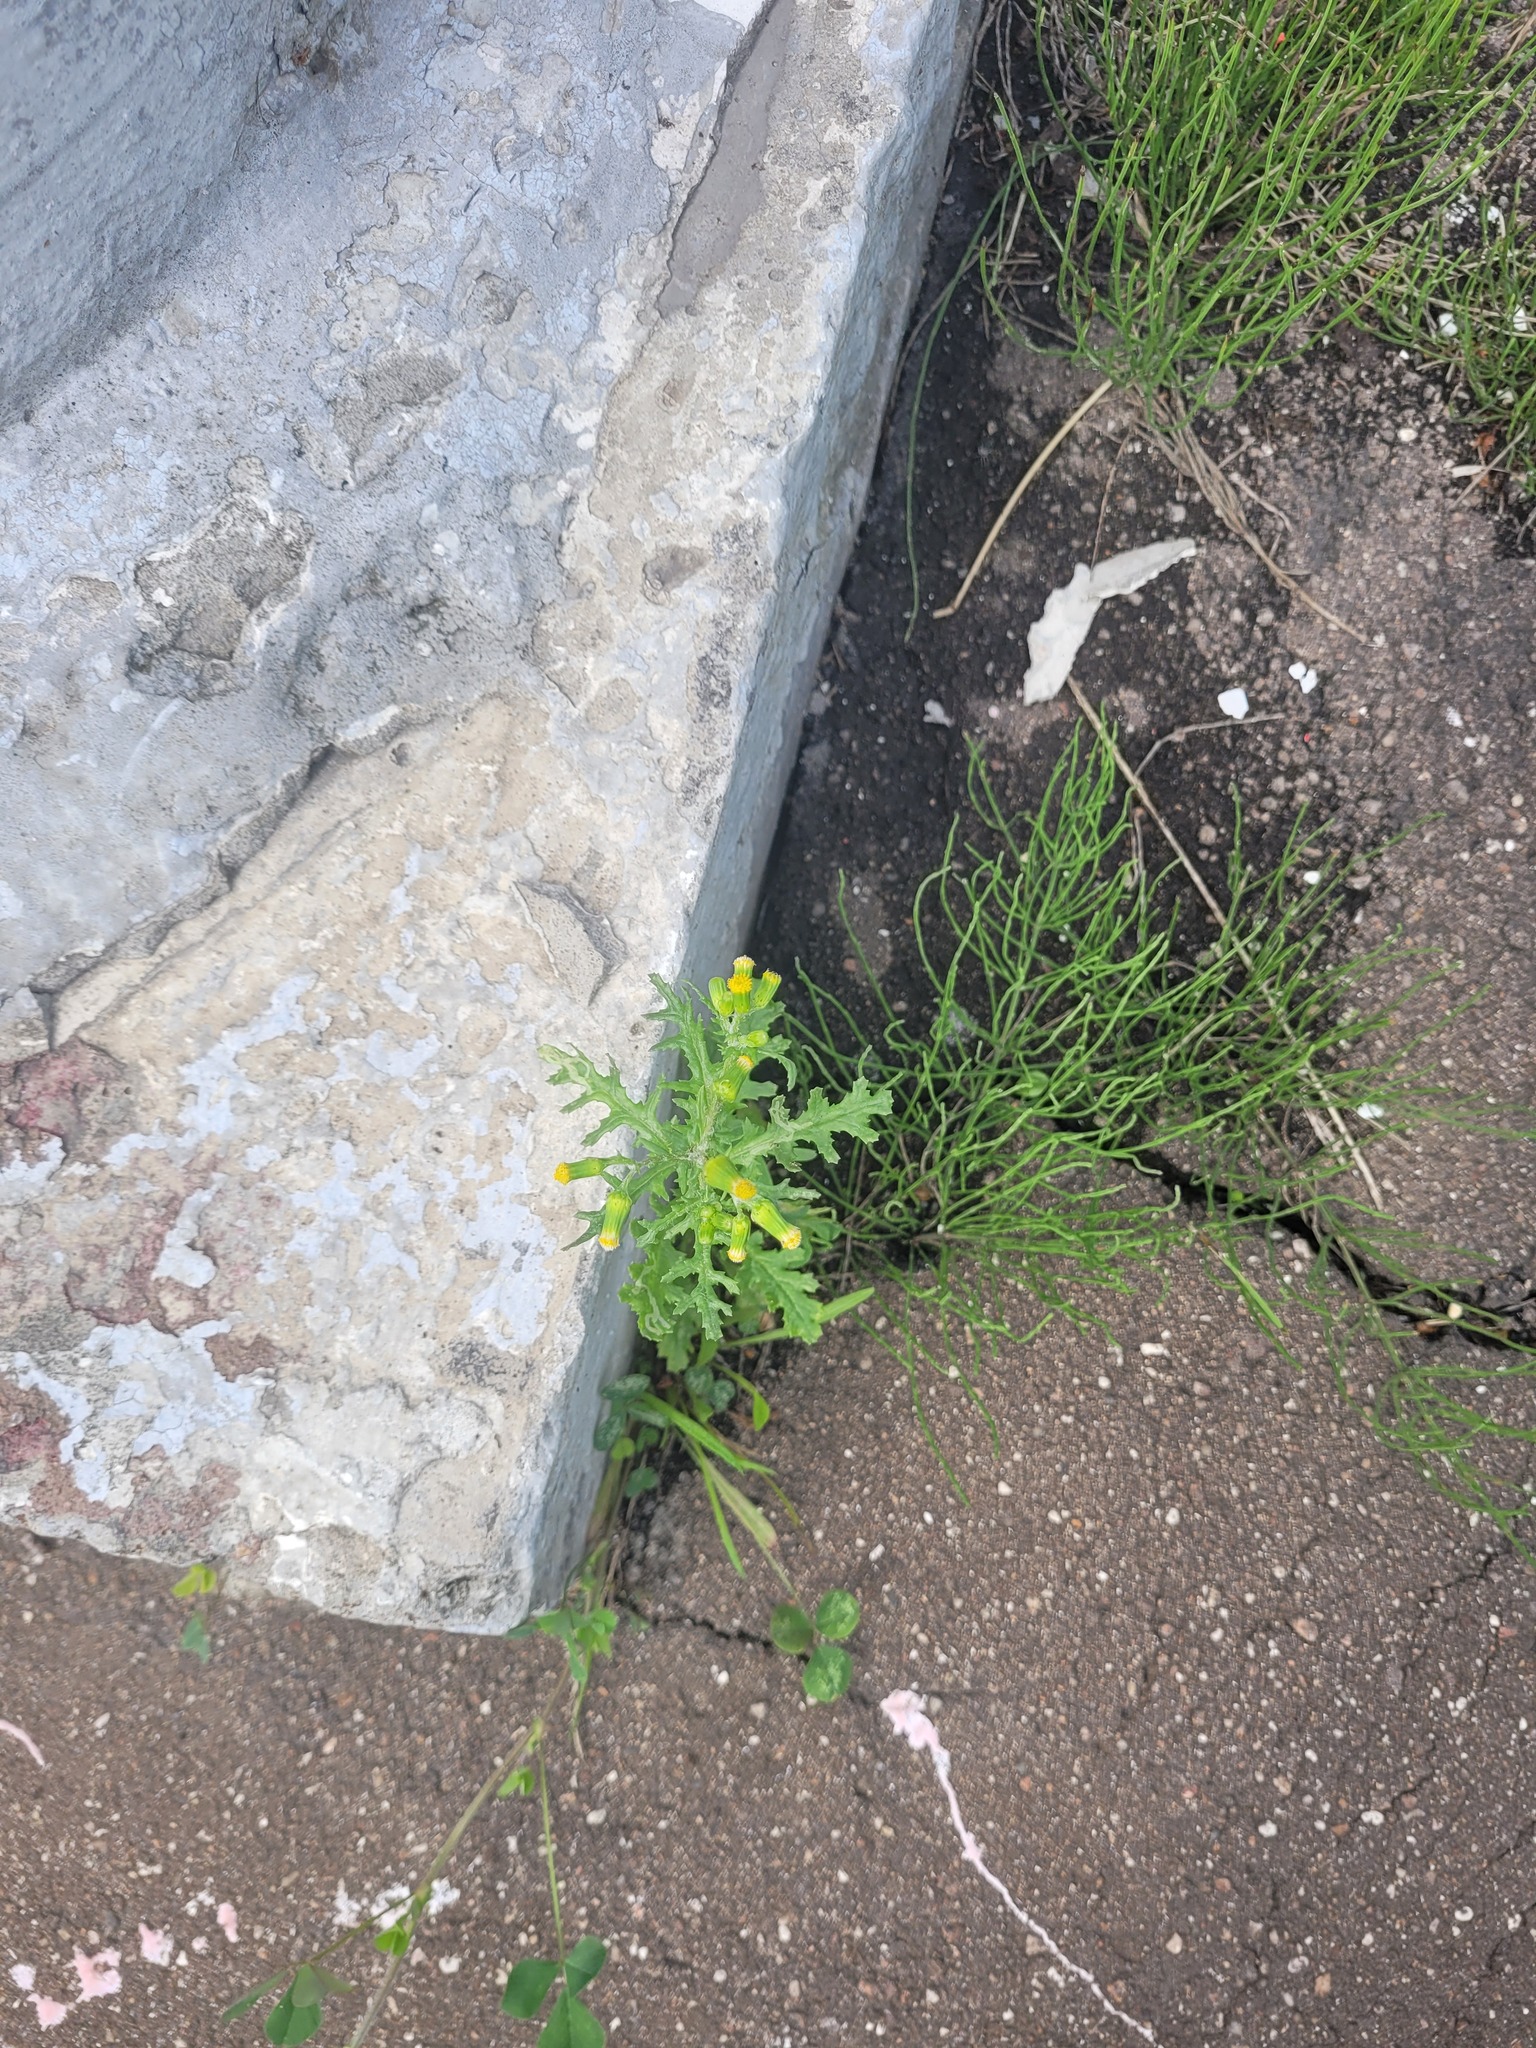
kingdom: Plantae
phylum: Tracheophyta
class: Magnoliopsida
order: Asterales
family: Asteraceae
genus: Senecio
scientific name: Senecio vulgaris
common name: Old-man-in-the-spring
